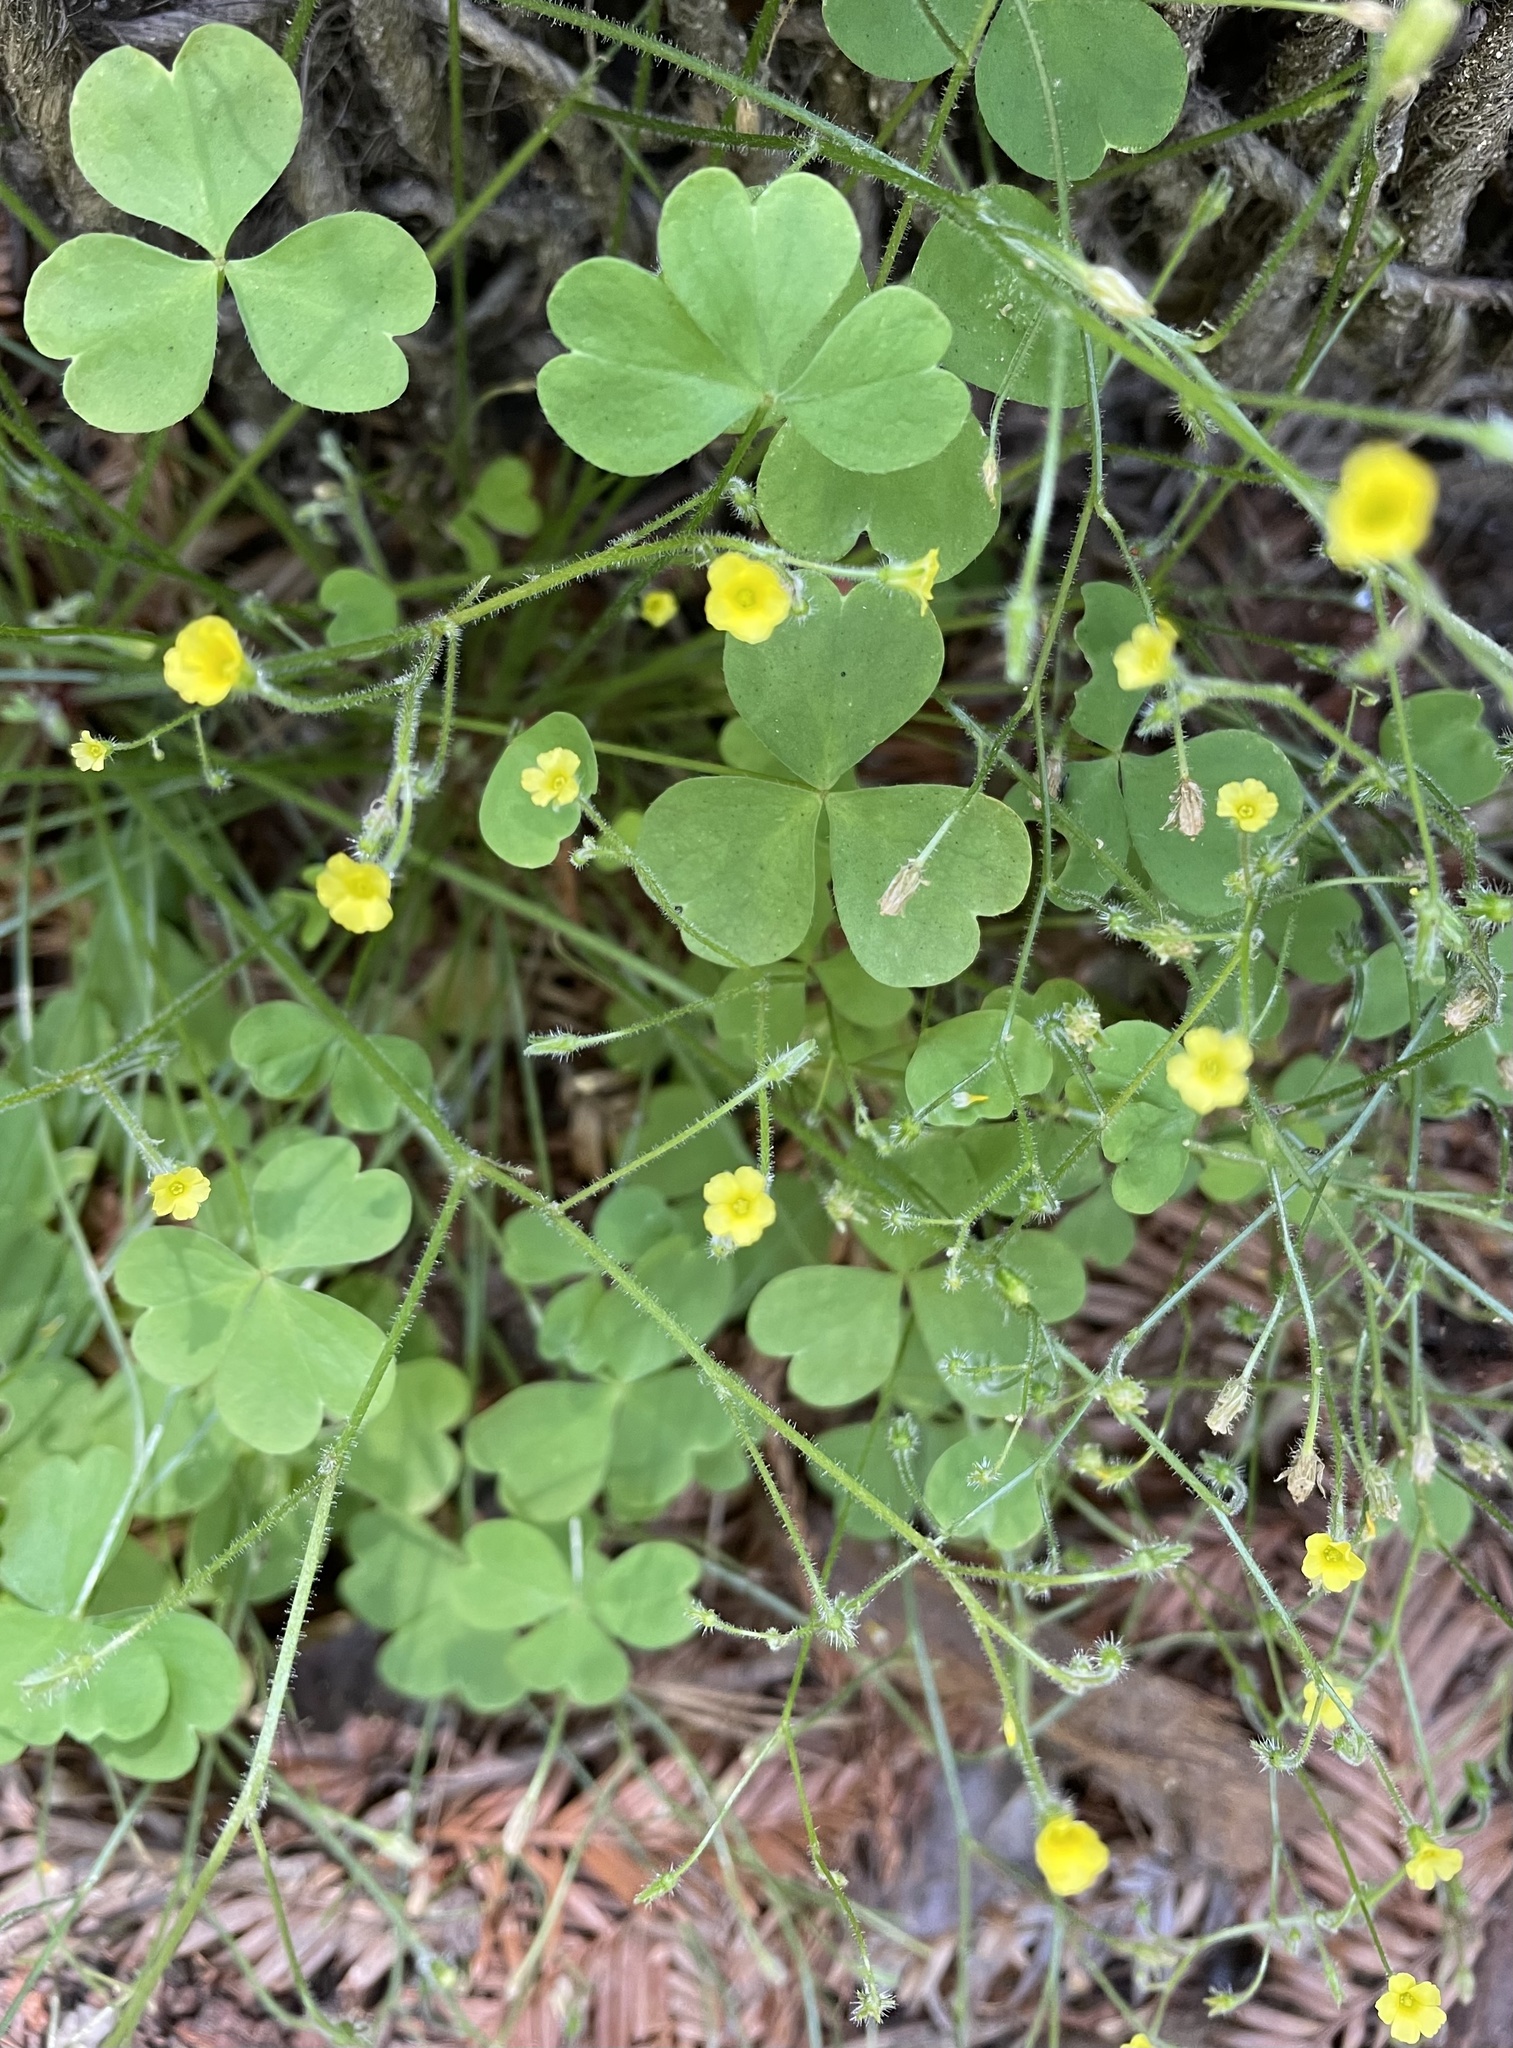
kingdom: Plantae
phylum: Tracheophyta
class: Magnoliopsida
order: Oxalidales
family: Oxalidaceae
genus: Oxalis
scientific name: Oxalis laxa
